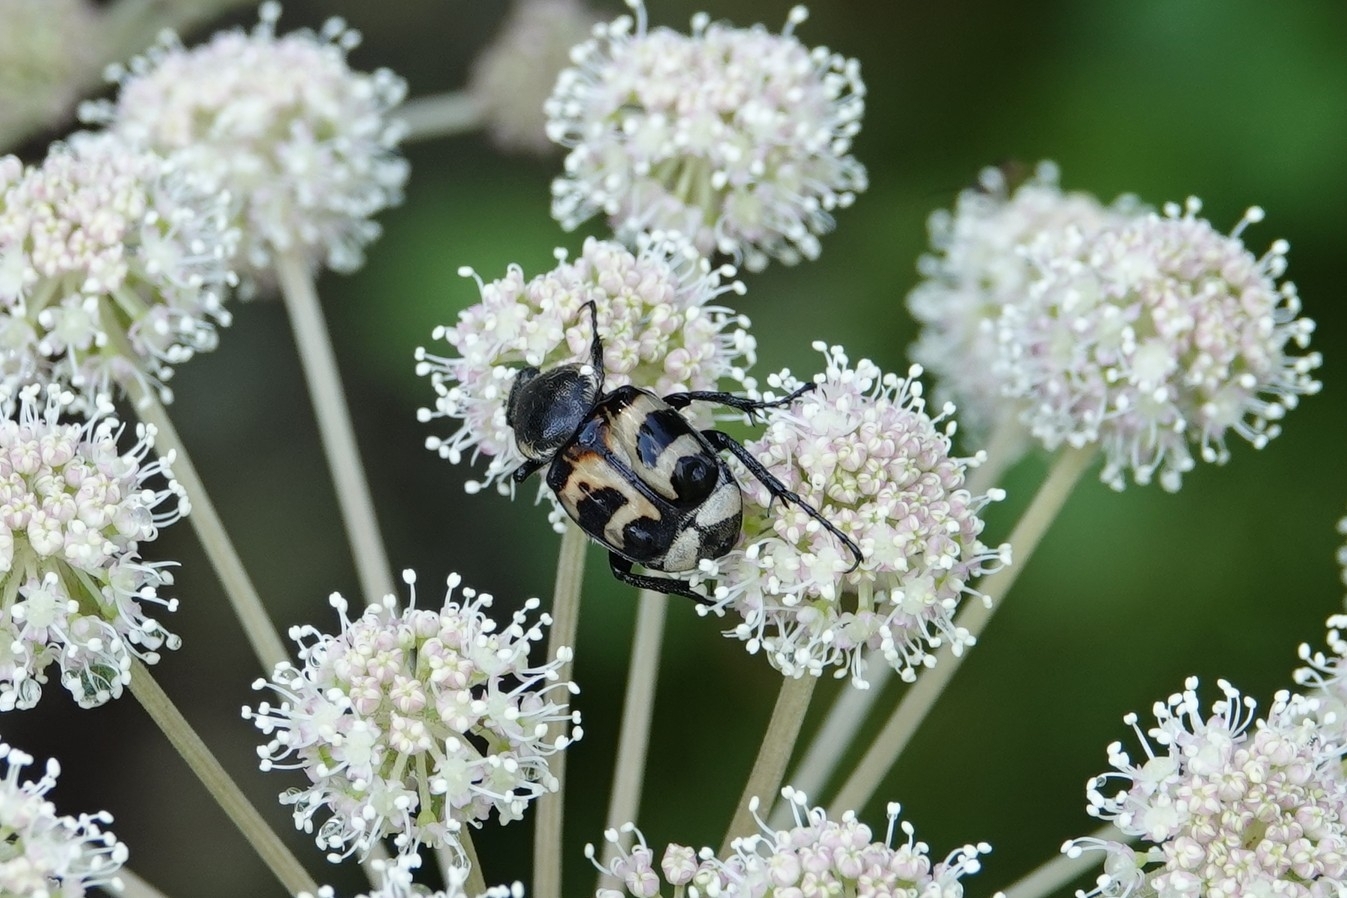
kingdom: Animalia
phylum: Arthropoda
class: Insecta
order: Coleoptera
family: Scarabaeidae
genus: Trichius
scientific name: Trichius fasciatus
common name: Bee beetle
